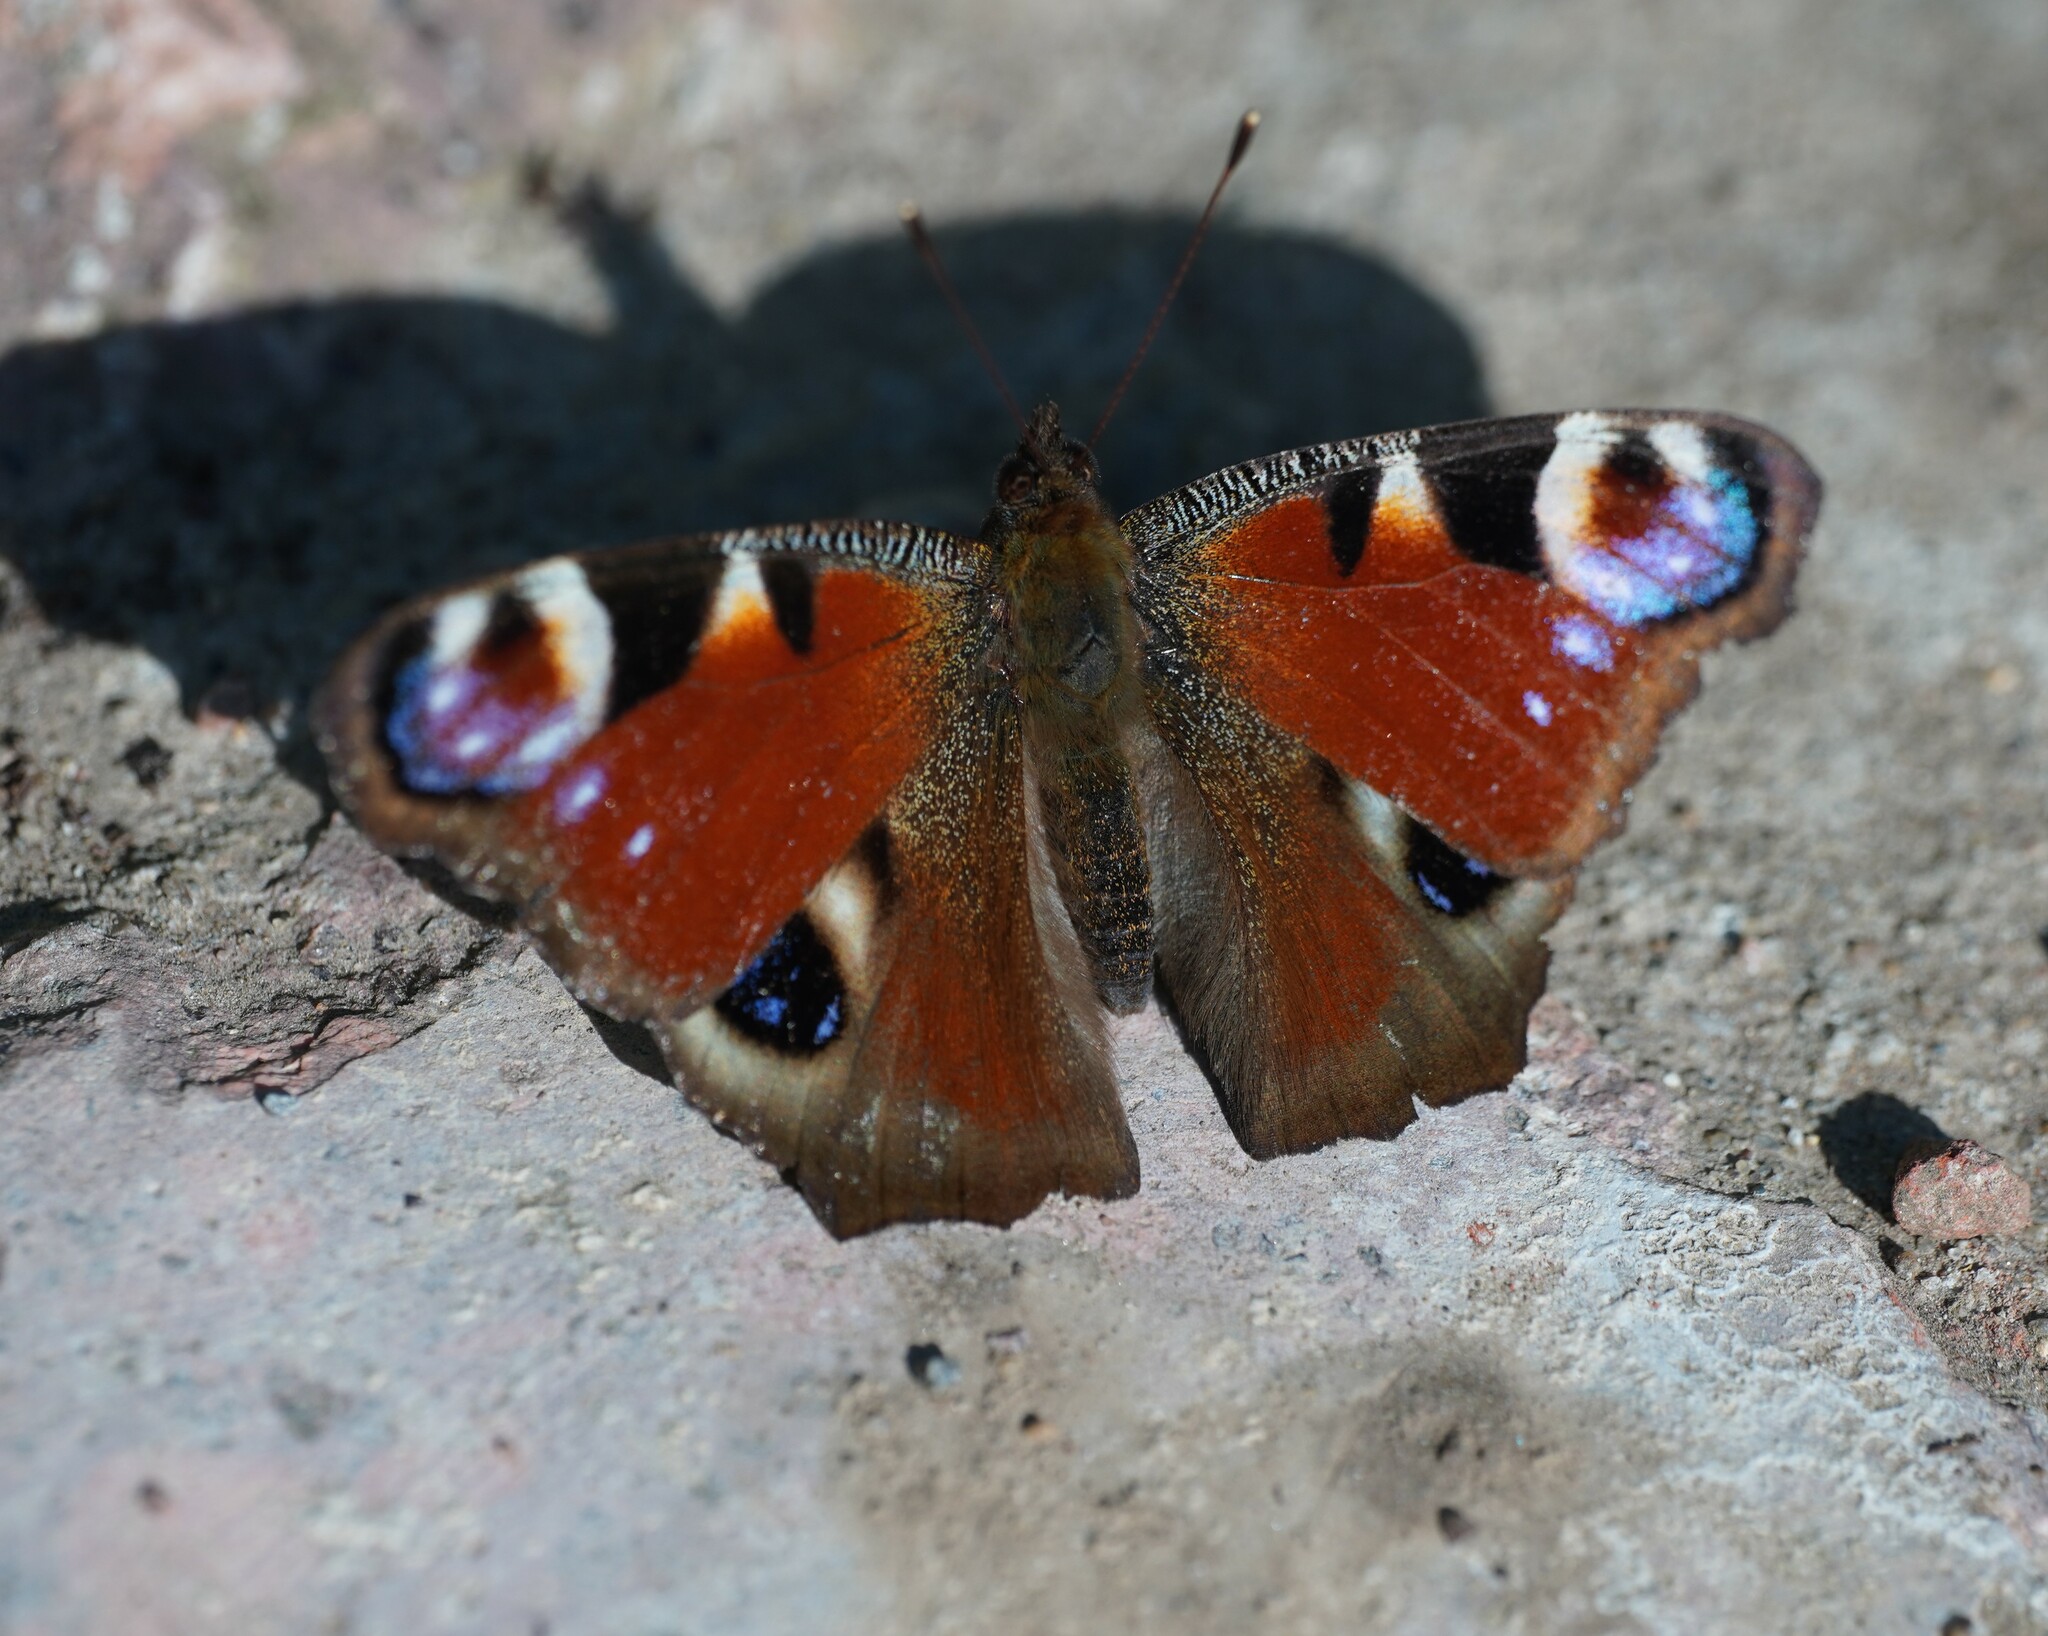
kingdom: Animalia
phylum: Arthropoda
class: Insecta
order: Lepidoptera
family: Nymphalidae
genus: Aglais
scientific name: Aglais io
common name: Peacock
